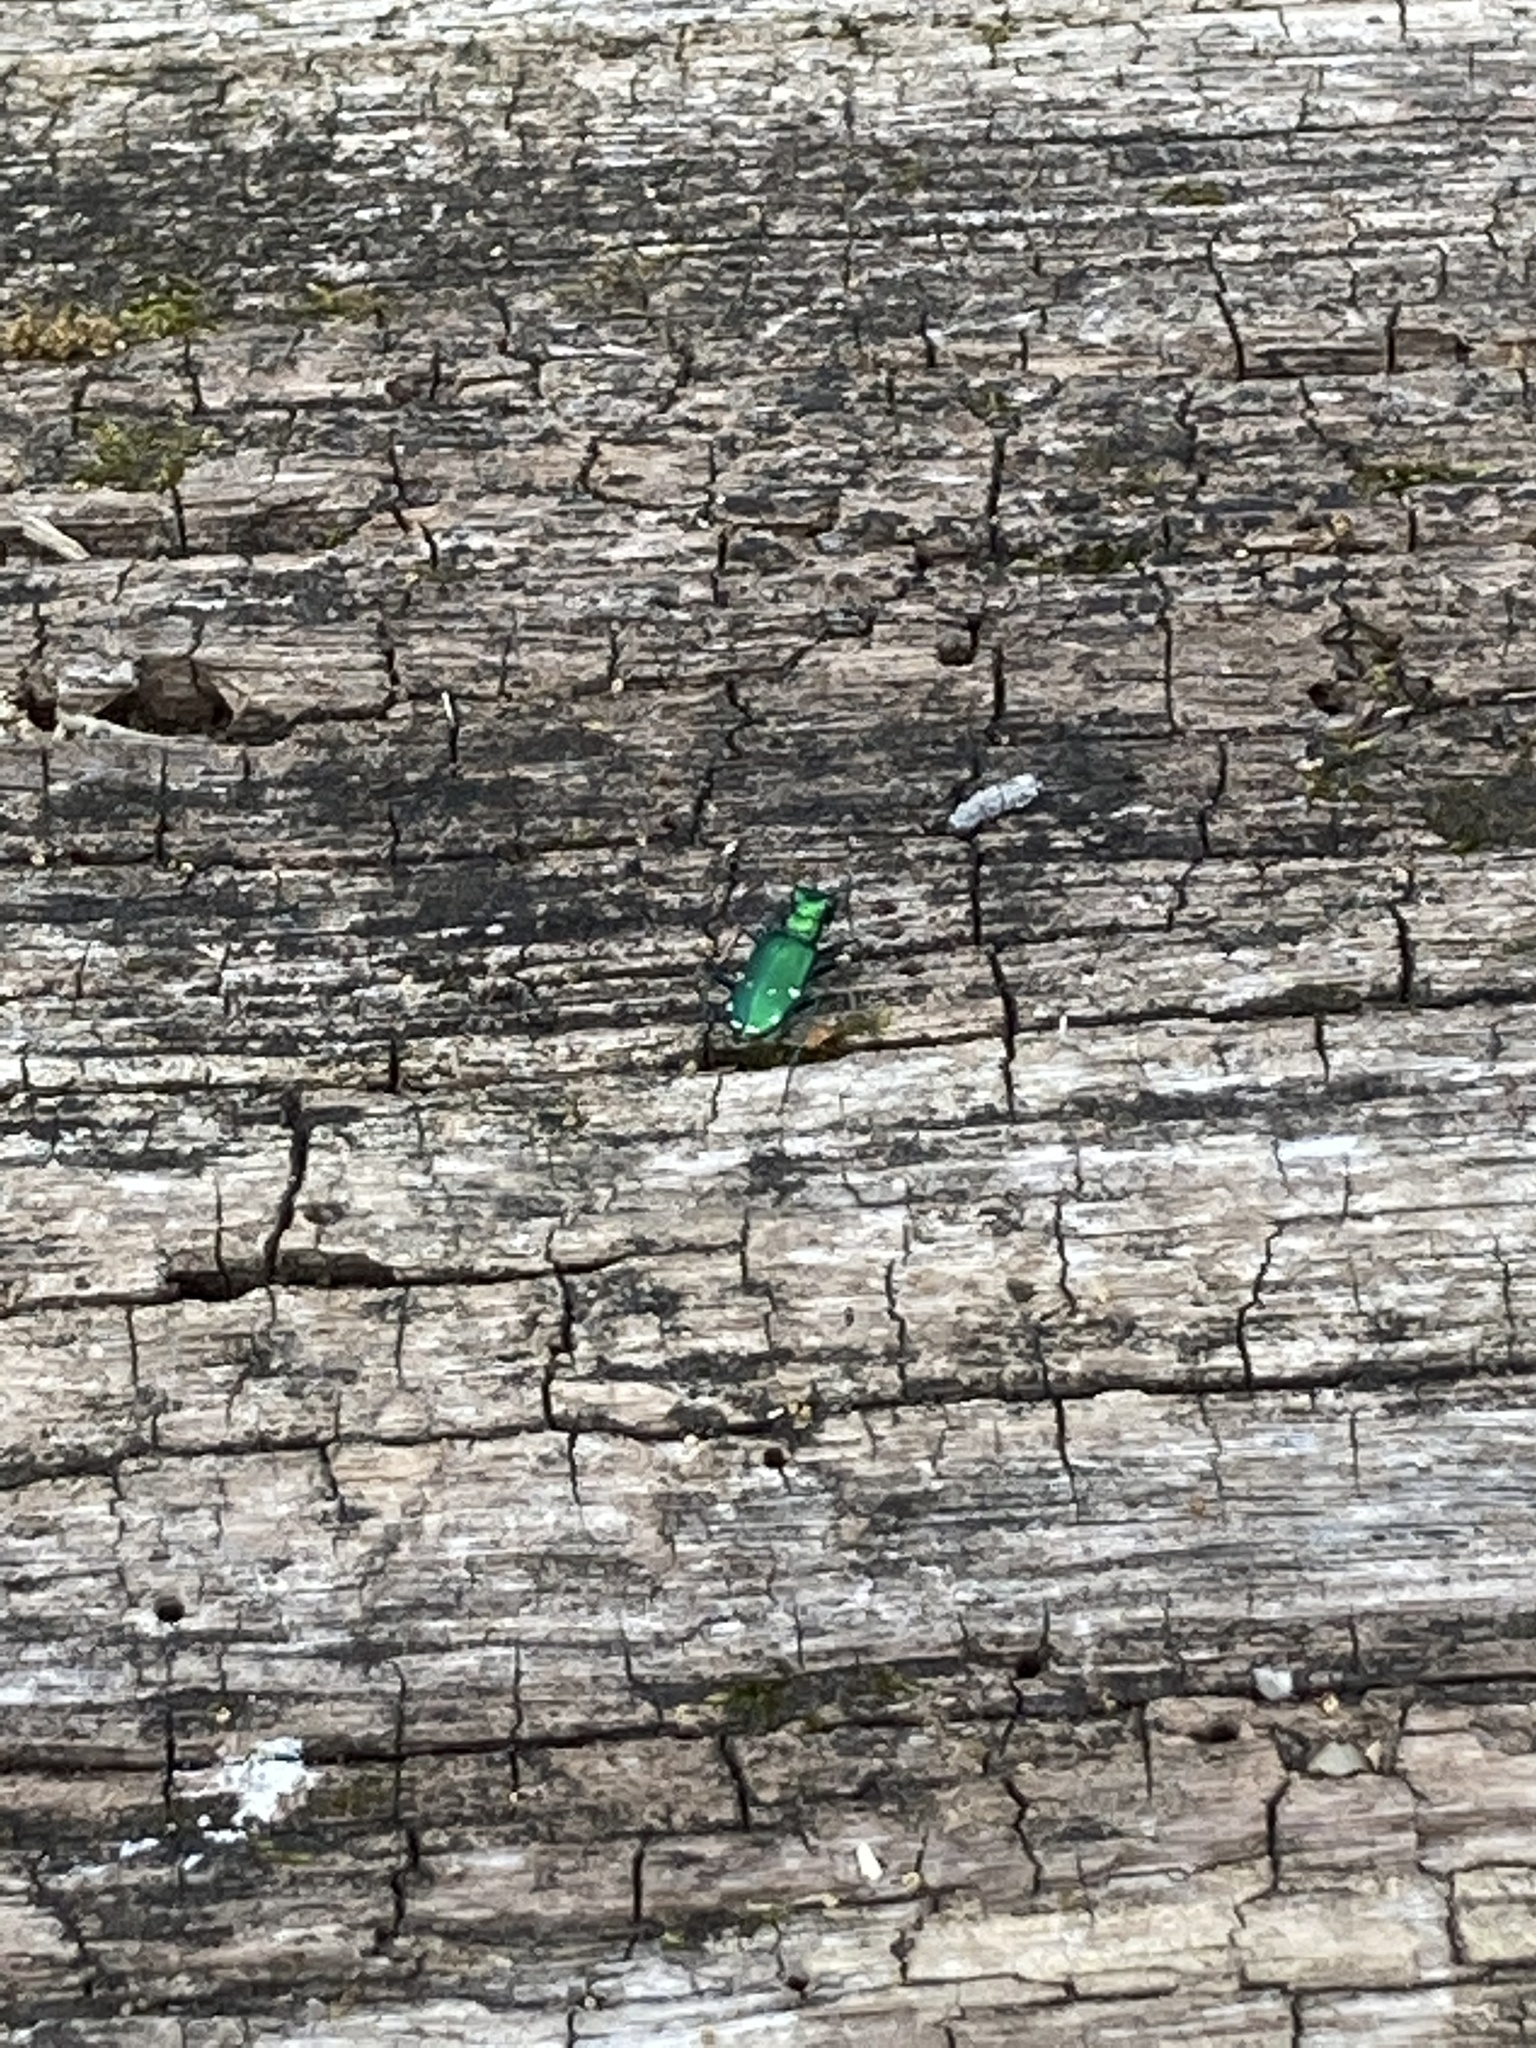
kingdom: Animalia
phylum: Arthropoda
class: Insecta
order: Coleoptera
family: Carabidae
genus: Cicindela
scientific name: Cicindela sexguttata
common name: Six-spotted tiger beetle
